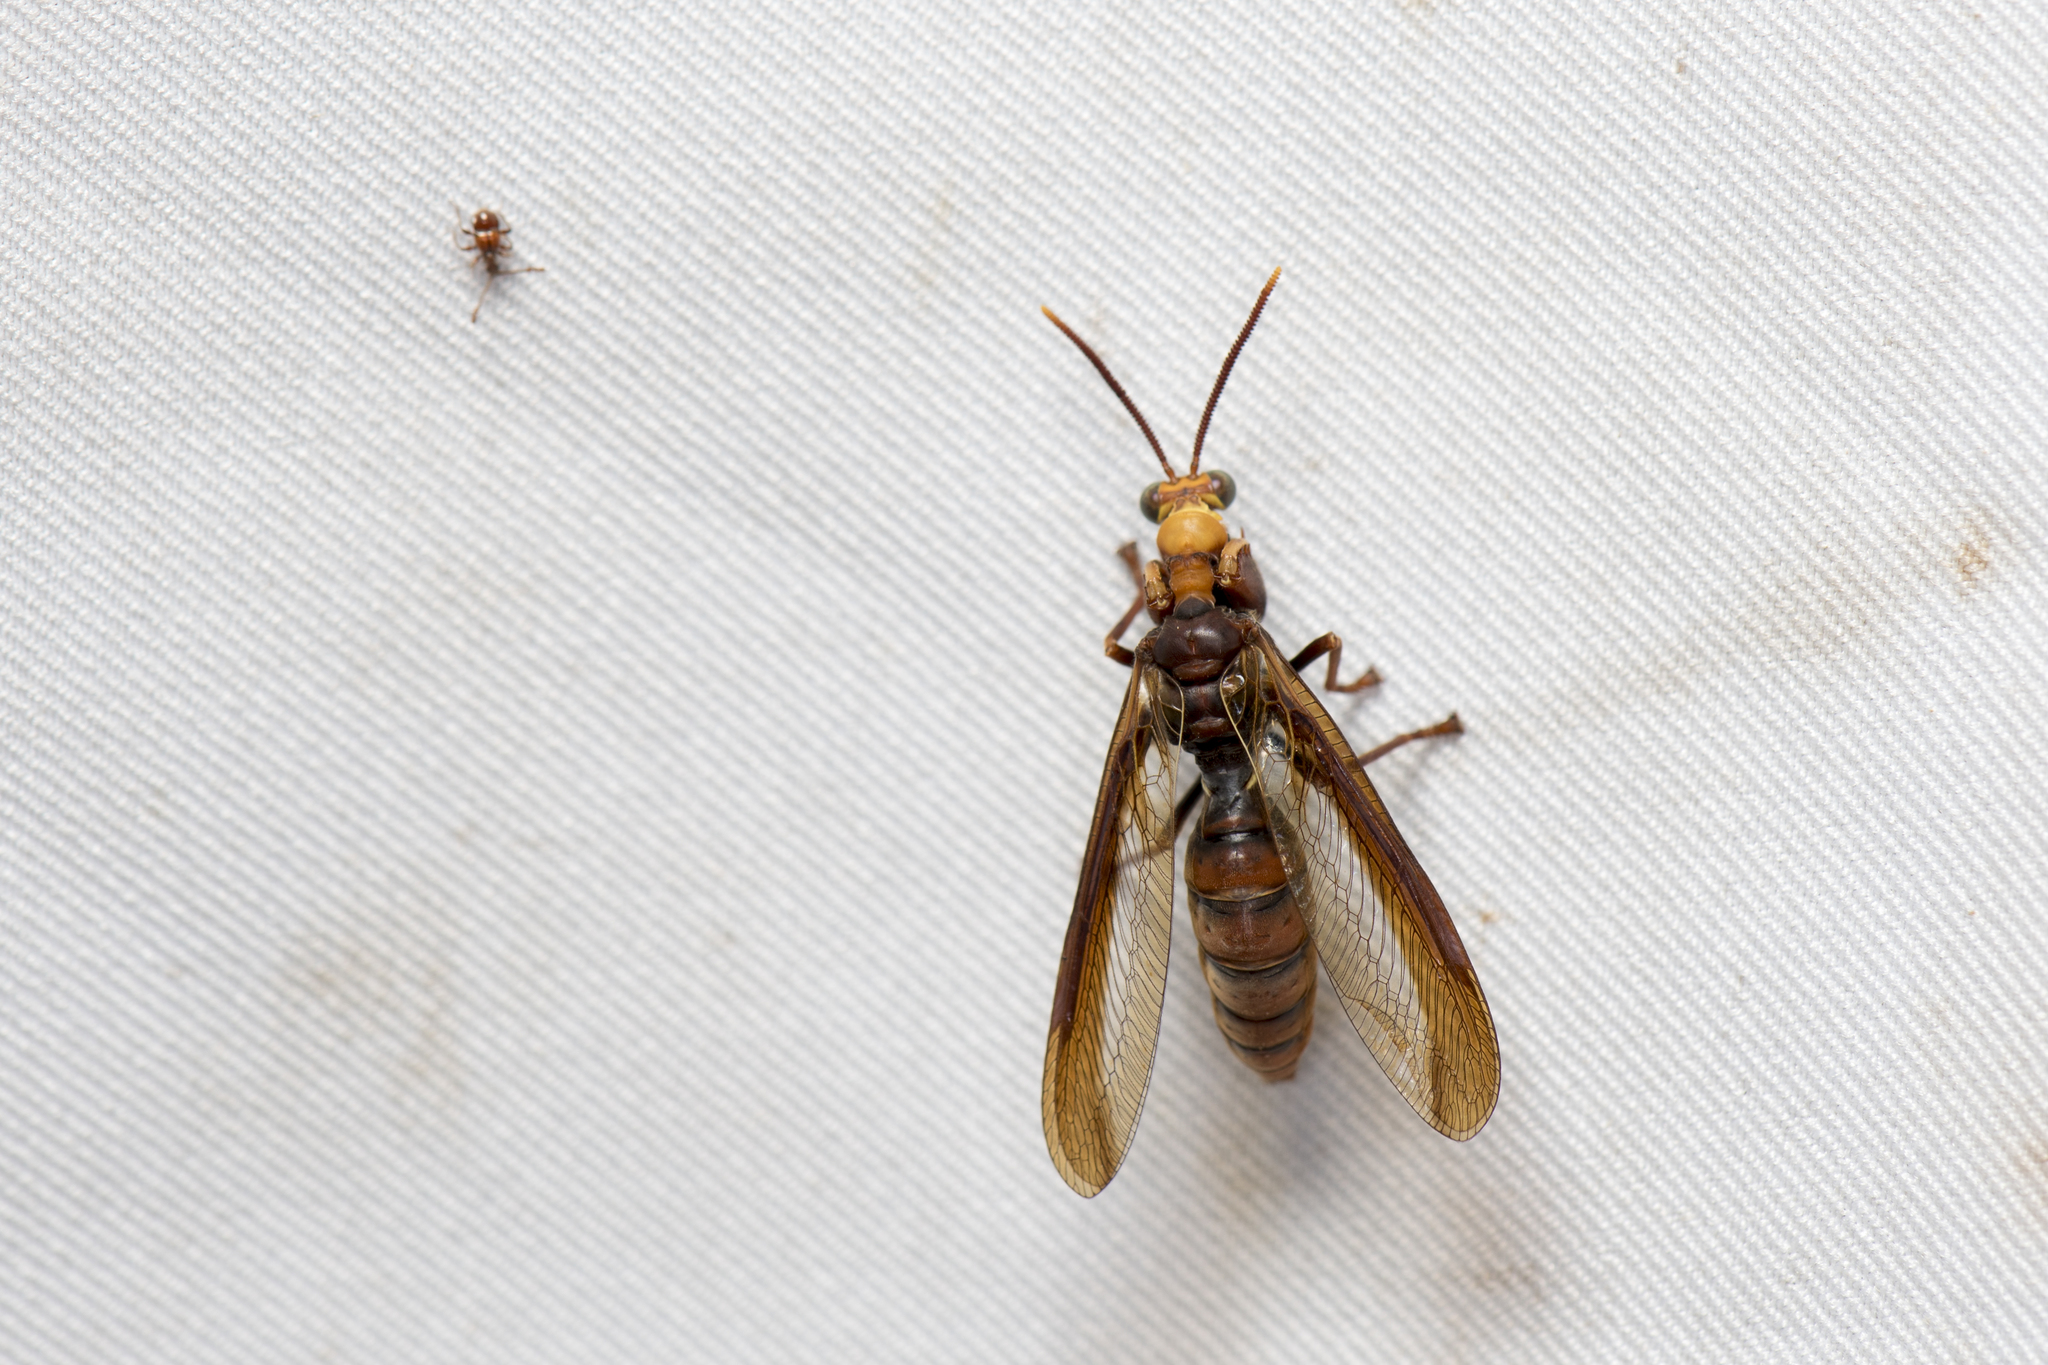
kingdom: Animalia
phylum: Arthropoda
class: Insecta
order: Neuroptera
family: Mantispidae
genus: Euclimacia
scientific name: Euclimacia fusca
